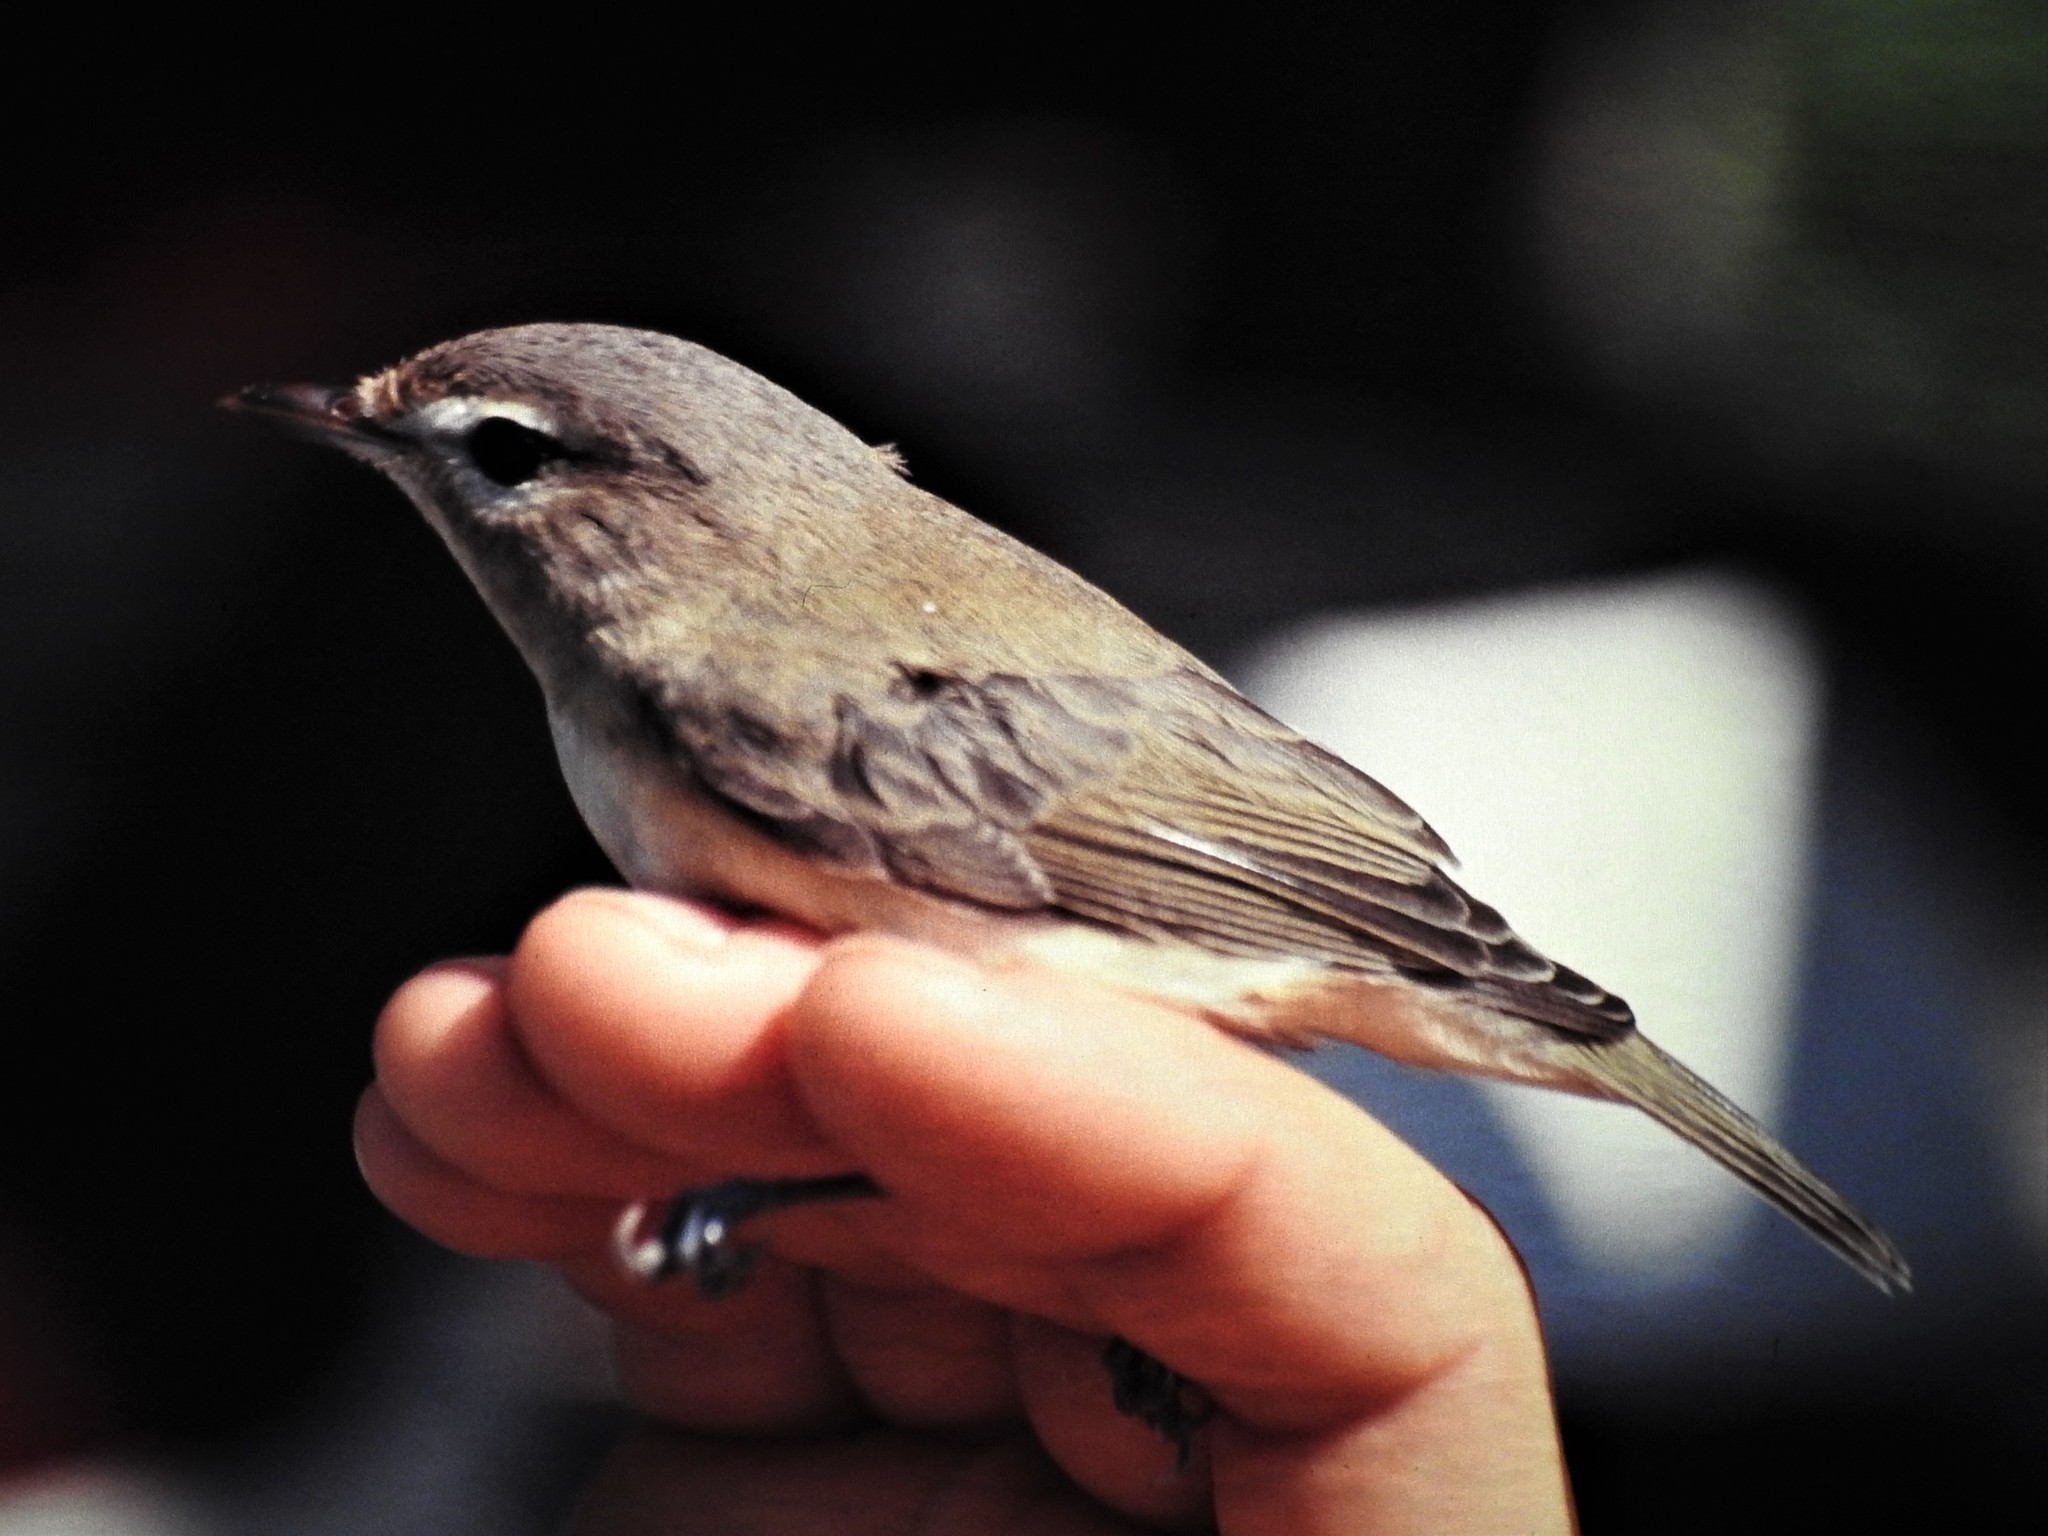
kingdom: Animalia
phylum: Chordata
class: Aves
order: Passeriformes
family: Vireonidae
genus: Vireo
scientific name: Vireo gilvus
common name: Warbling vireo
